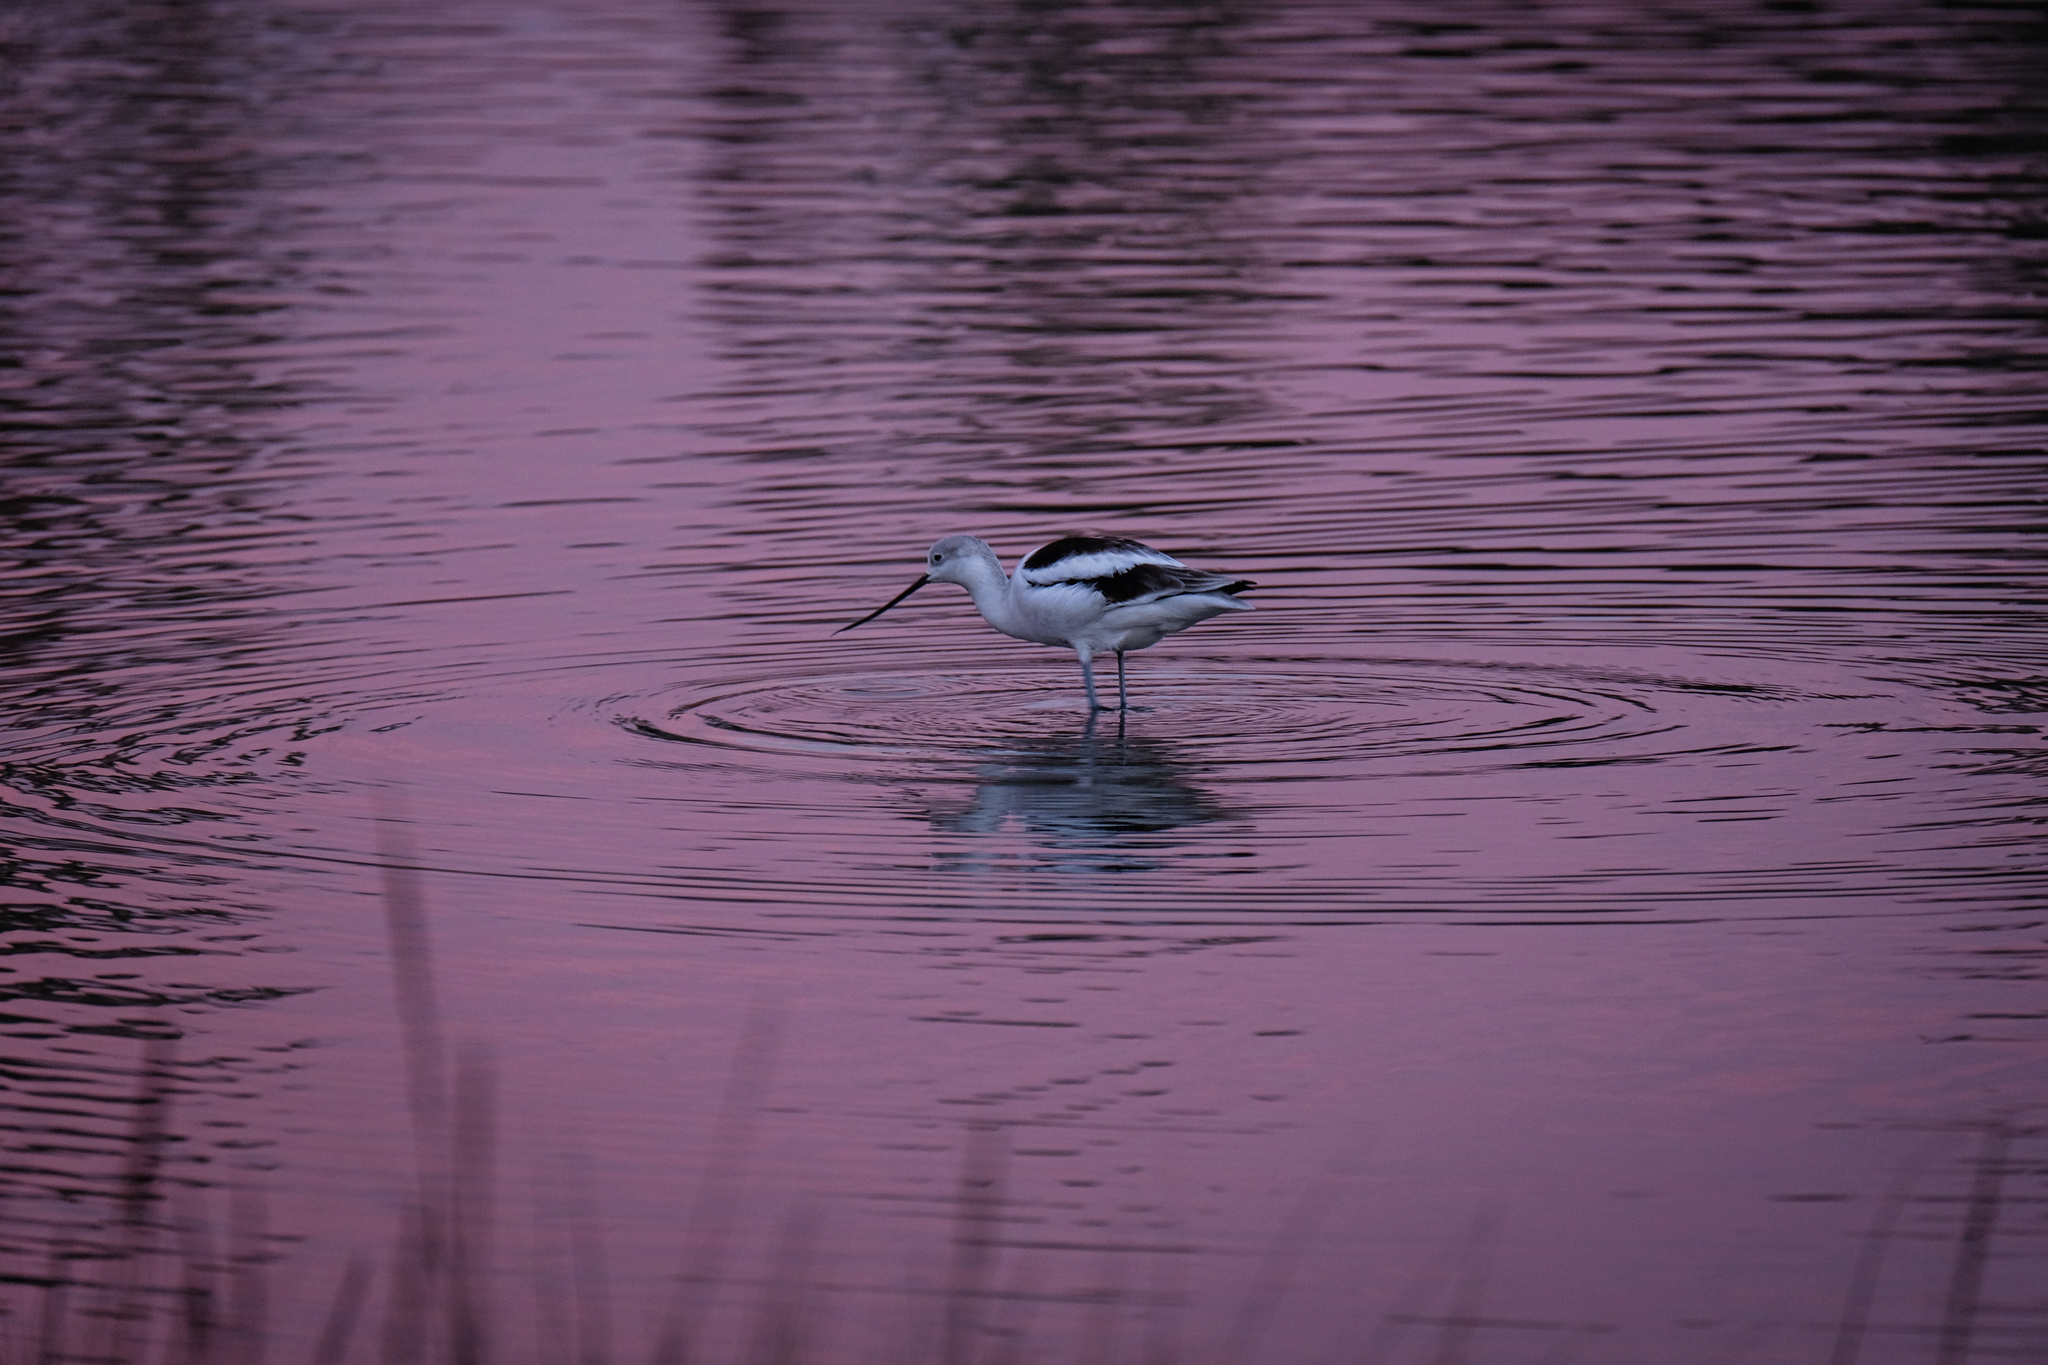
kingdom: Animalia
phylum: Chordata
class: Aves
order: Charadriiformes
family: Recurvirostridae
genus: Recurvirostra
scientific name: Recurvirostra americana
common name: American avocet
